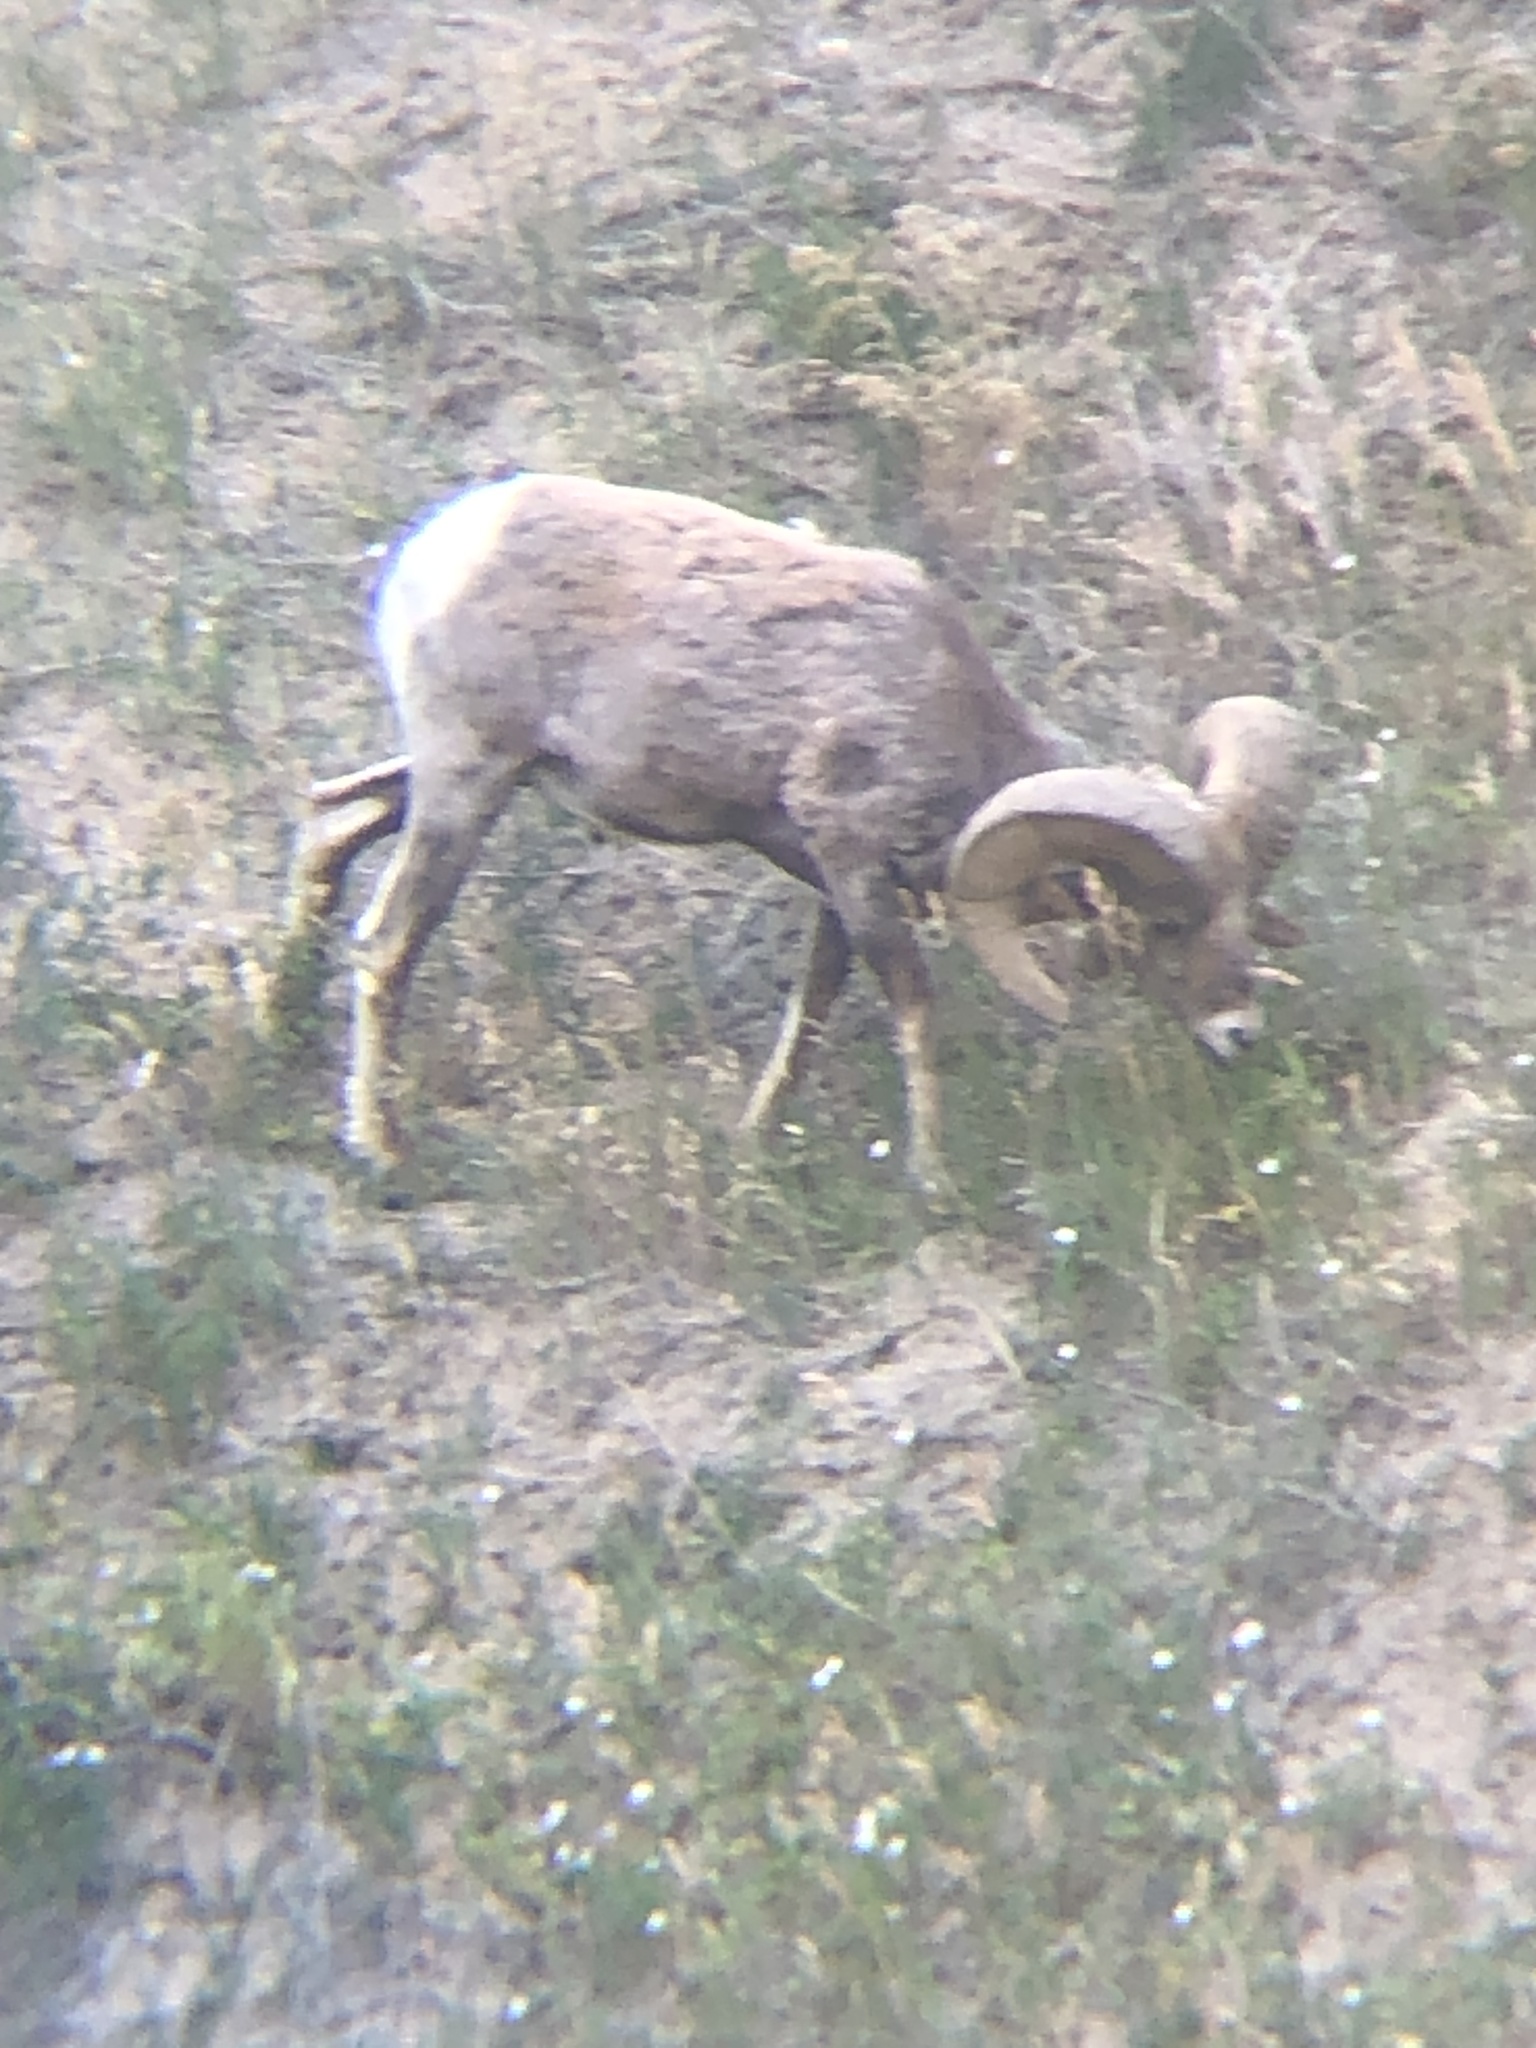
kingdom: Animalia
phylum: Chordata
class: Mammalia
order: Artiodactyla
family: Bovidae
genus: Ovis
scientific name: Ovis canadensis
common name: Bighorn sheep
